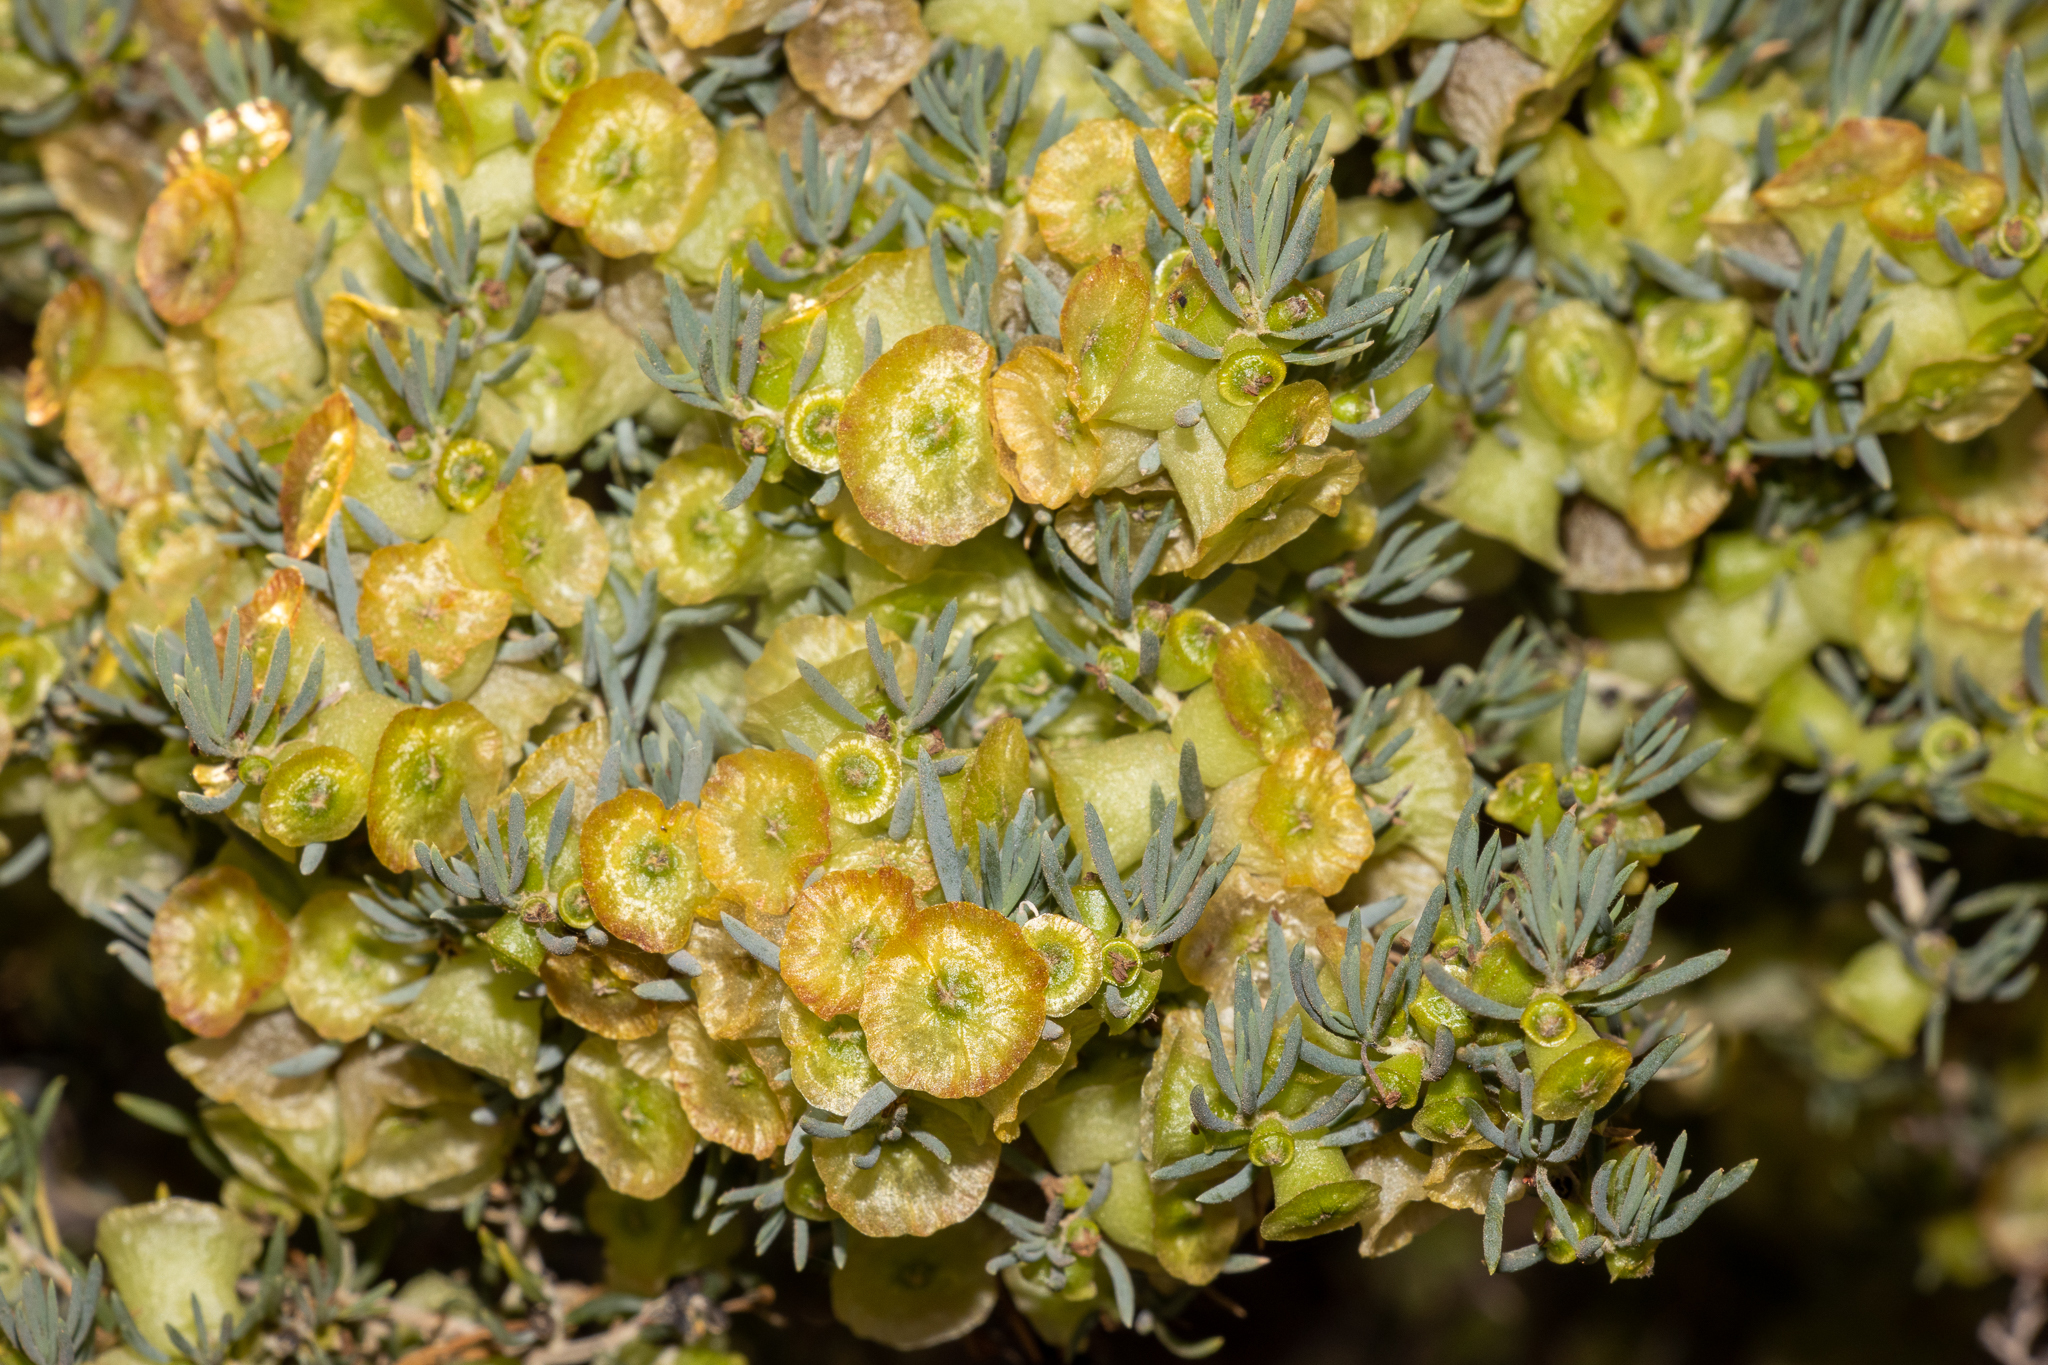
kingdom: Plantae
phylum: Tracheophyta
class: Magnoliopsida
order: Caryophyllales
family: Amaranthaceae
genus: Maireana
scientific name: Maireana campanulata
